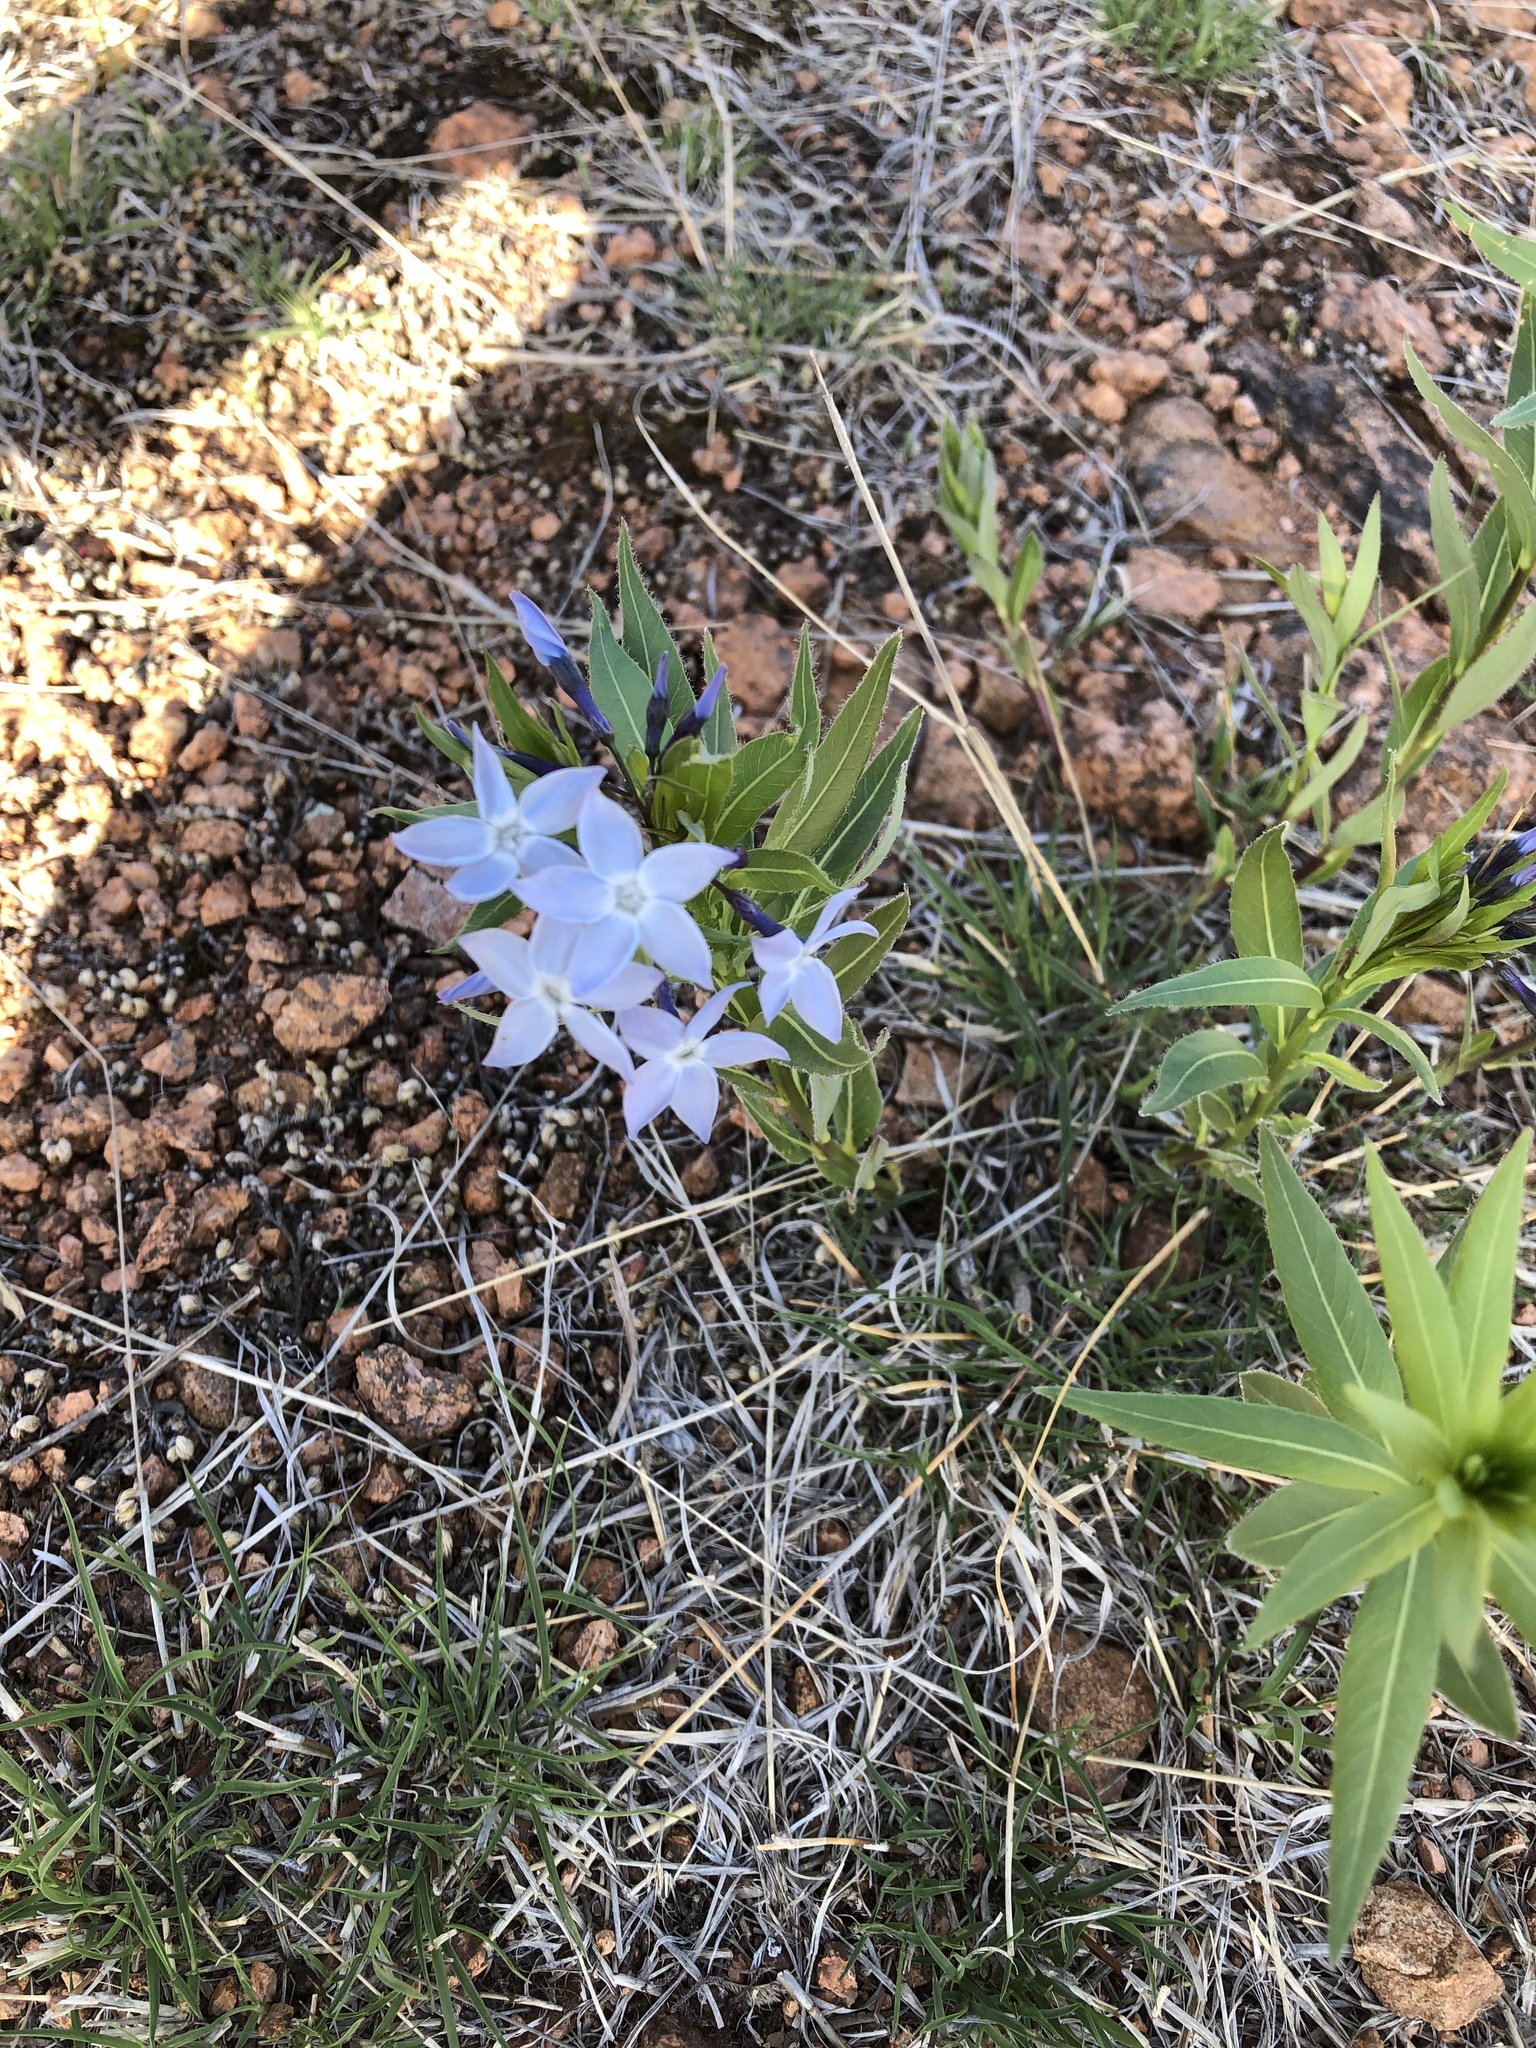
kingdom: Plantae
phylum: Tracheophyta
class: Magnoliopsida
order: Gentianales
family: Apocynaceae
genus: Amsonia
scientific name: Amsonia ciliata
